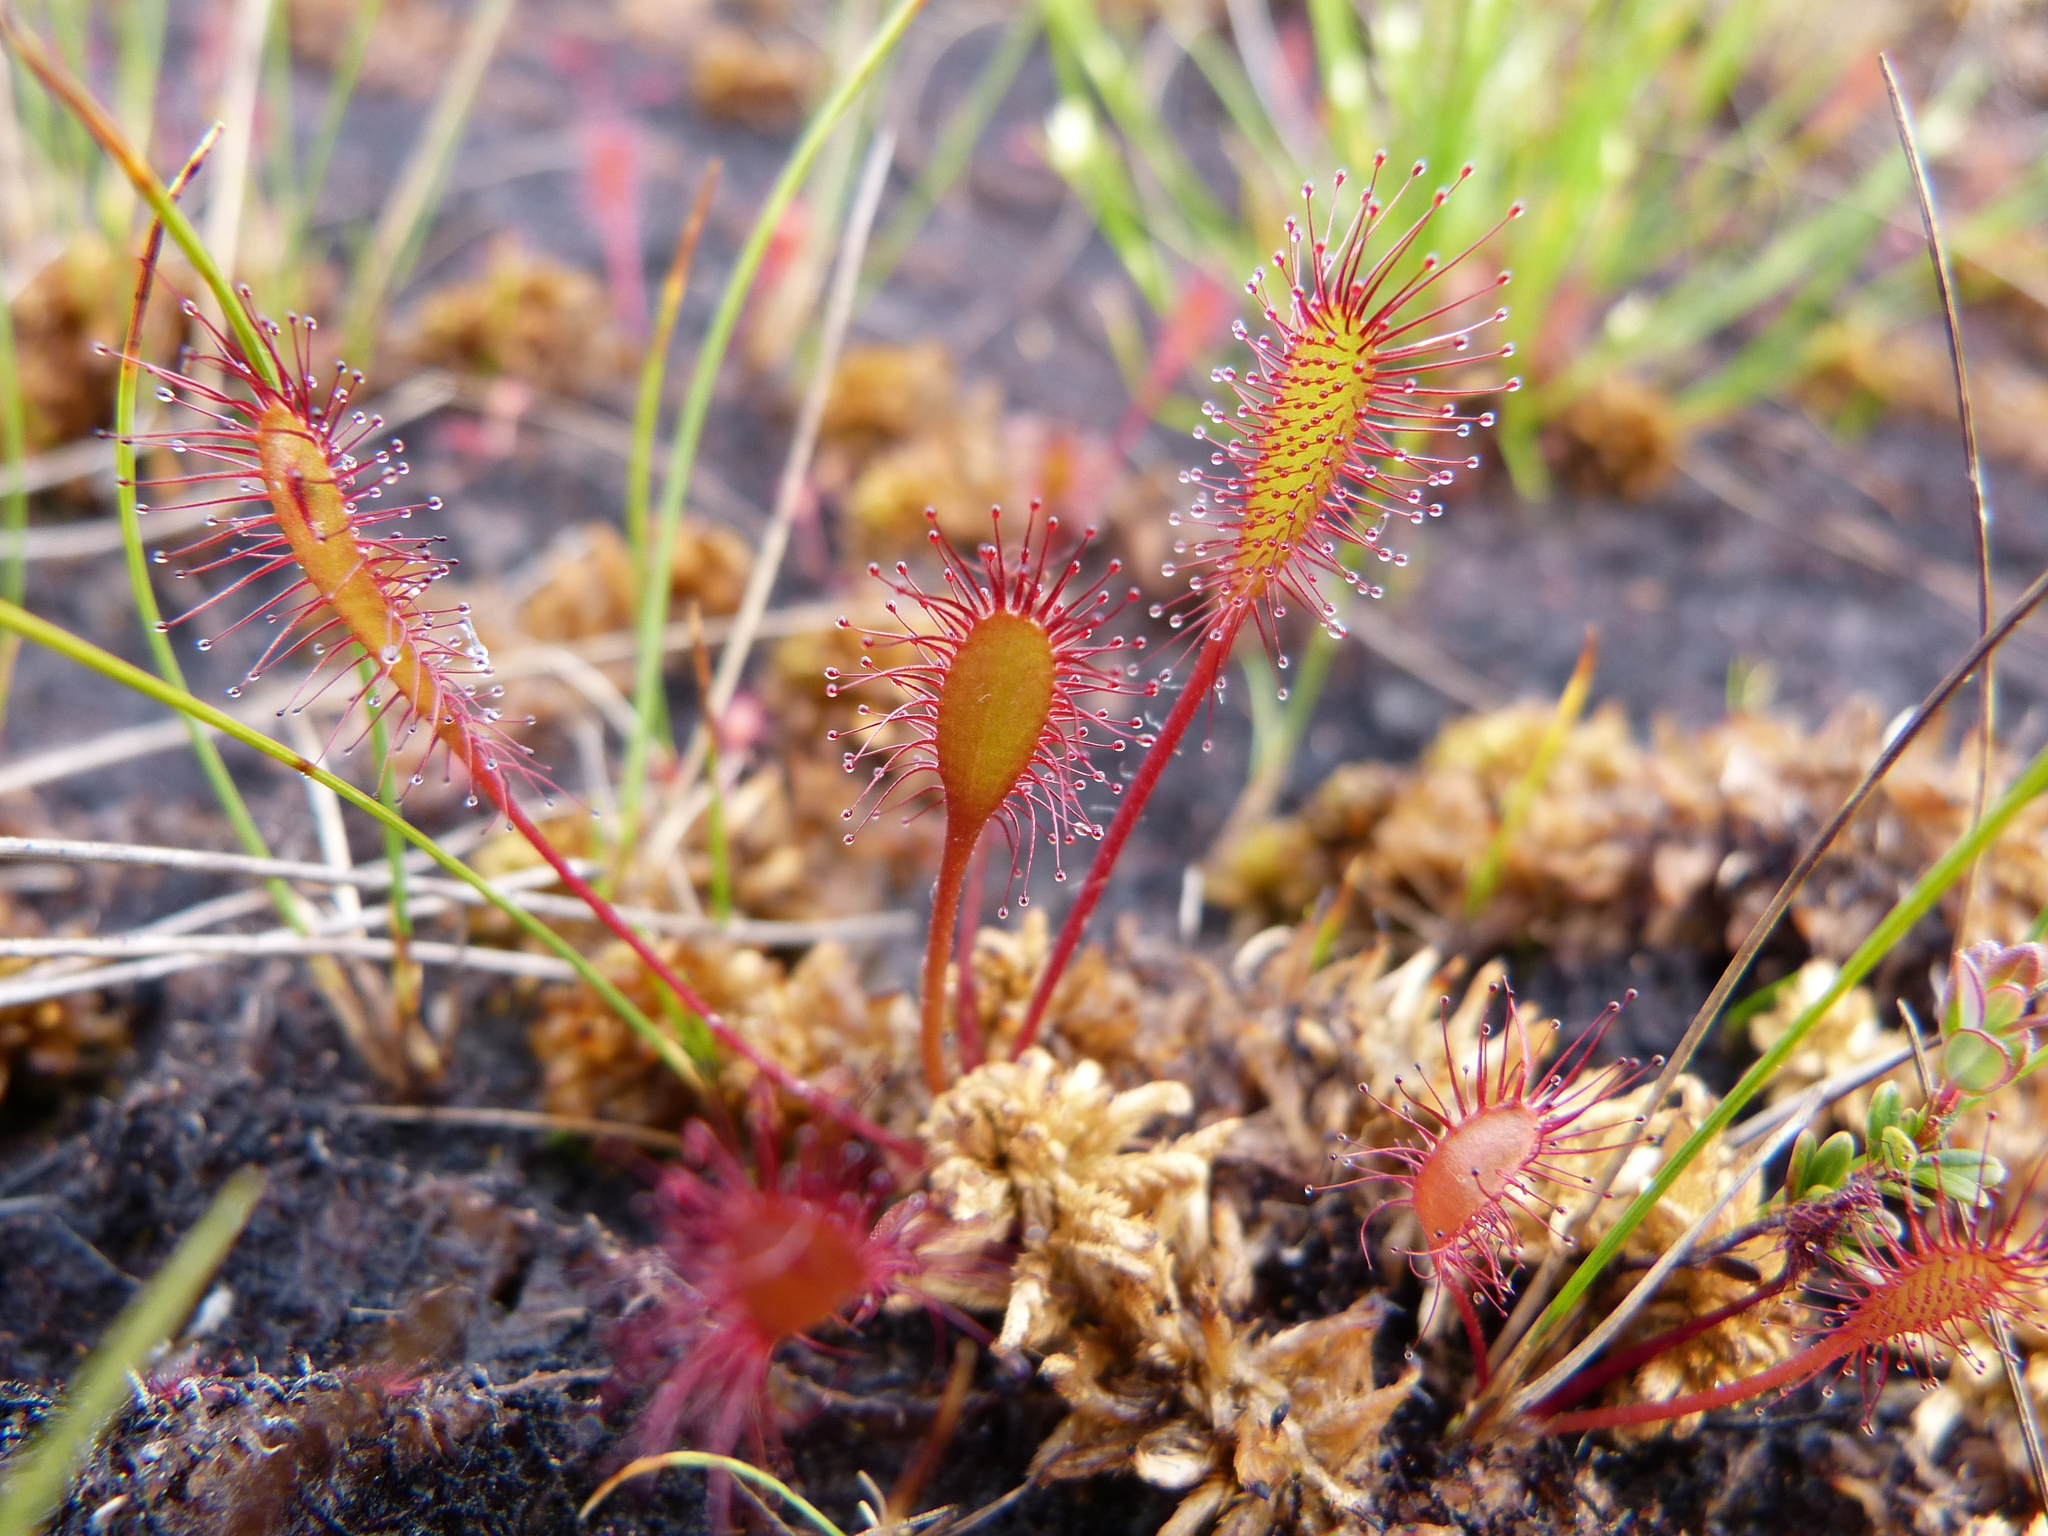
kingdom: Plantae
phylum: Tracheophyta
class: Magnoliopsida
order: Caryophyllales
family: Droseraceae
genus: Drosera
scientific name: Drosera anglica
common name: Great sundew
